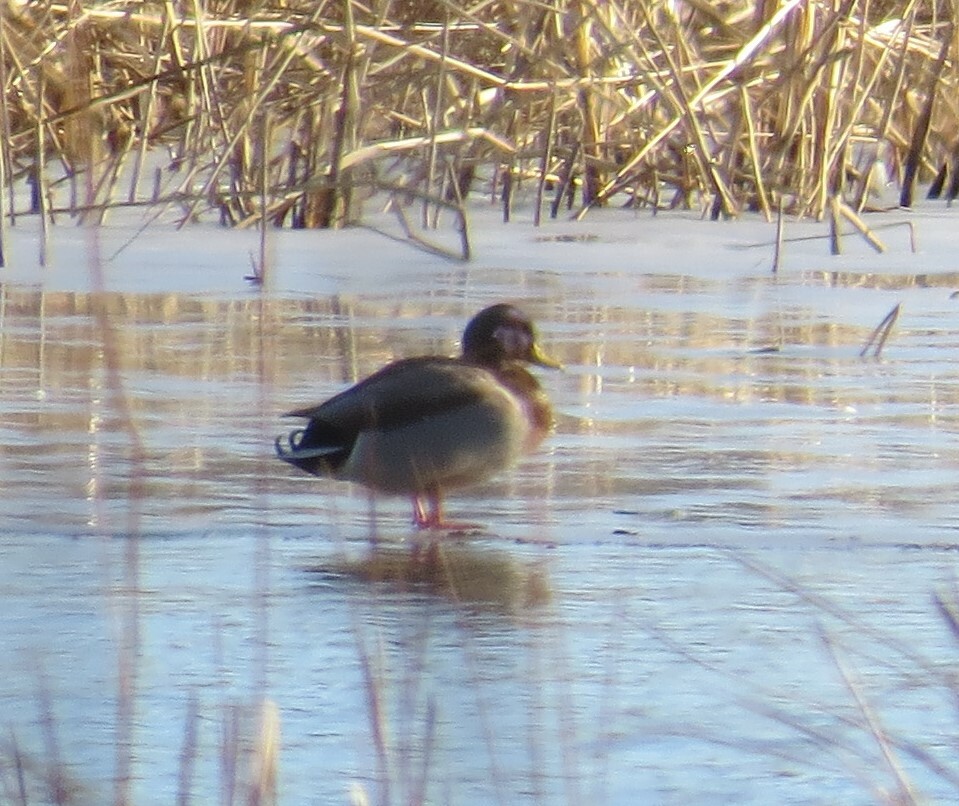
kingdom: Animalia
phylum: Chordata
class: Aves
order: Anseriformes
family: Anatidae
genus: Anas
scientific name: Anas platyrhynchos
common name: Mallard
